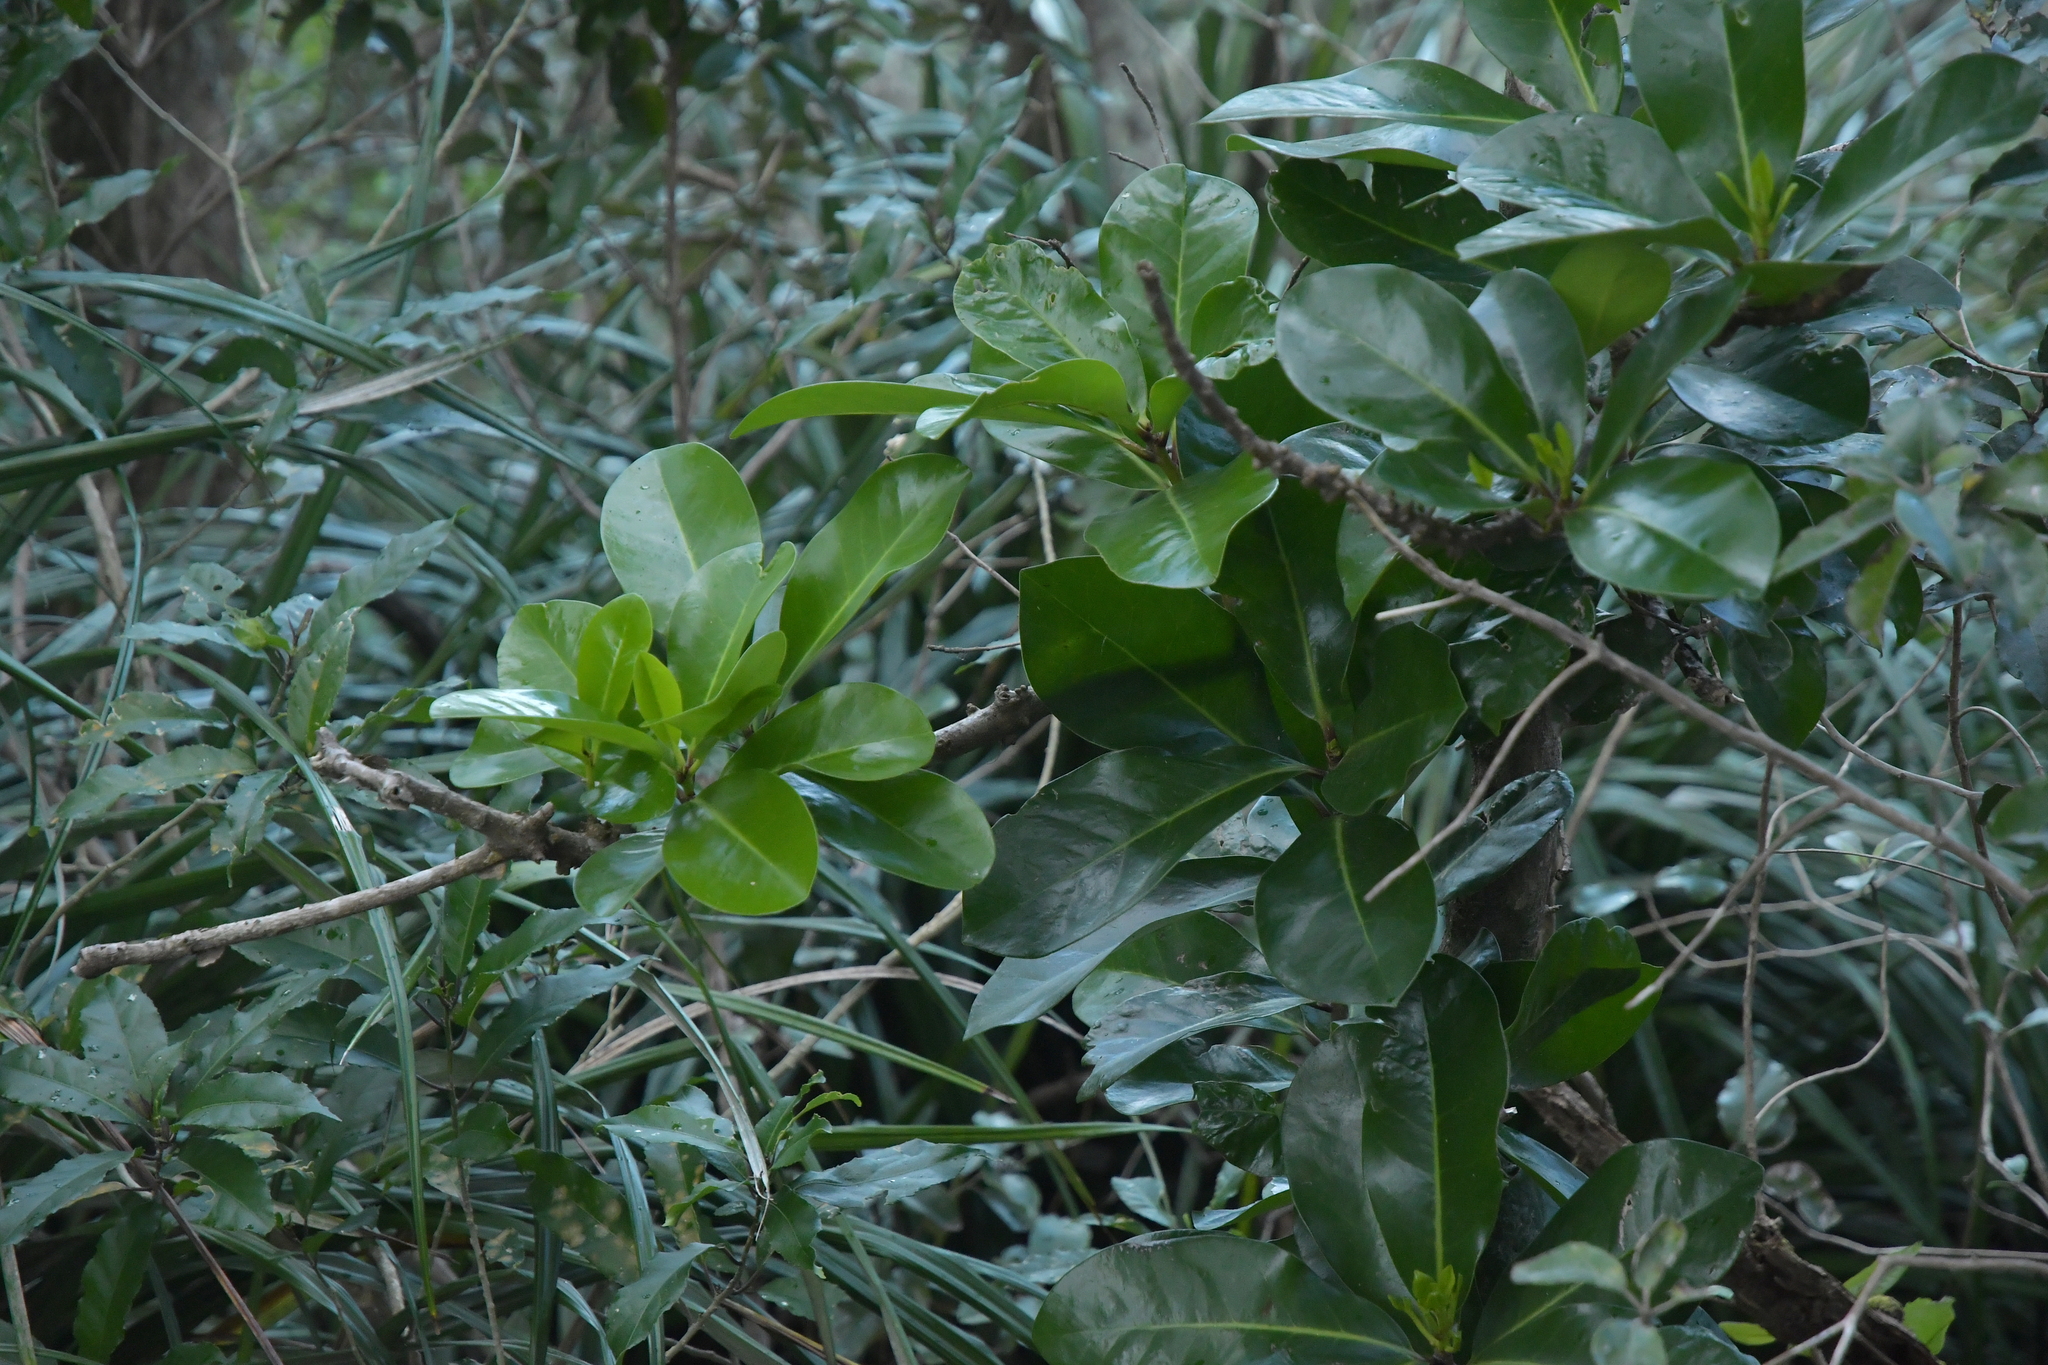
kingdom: Plantae
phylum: Tracheophyta
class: Magnoliopsida
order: Cucurbitales
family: Corynocarpaceae
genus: Corynocarpus
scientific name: Corynocarpus laevigatus
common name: New zealand laurel
